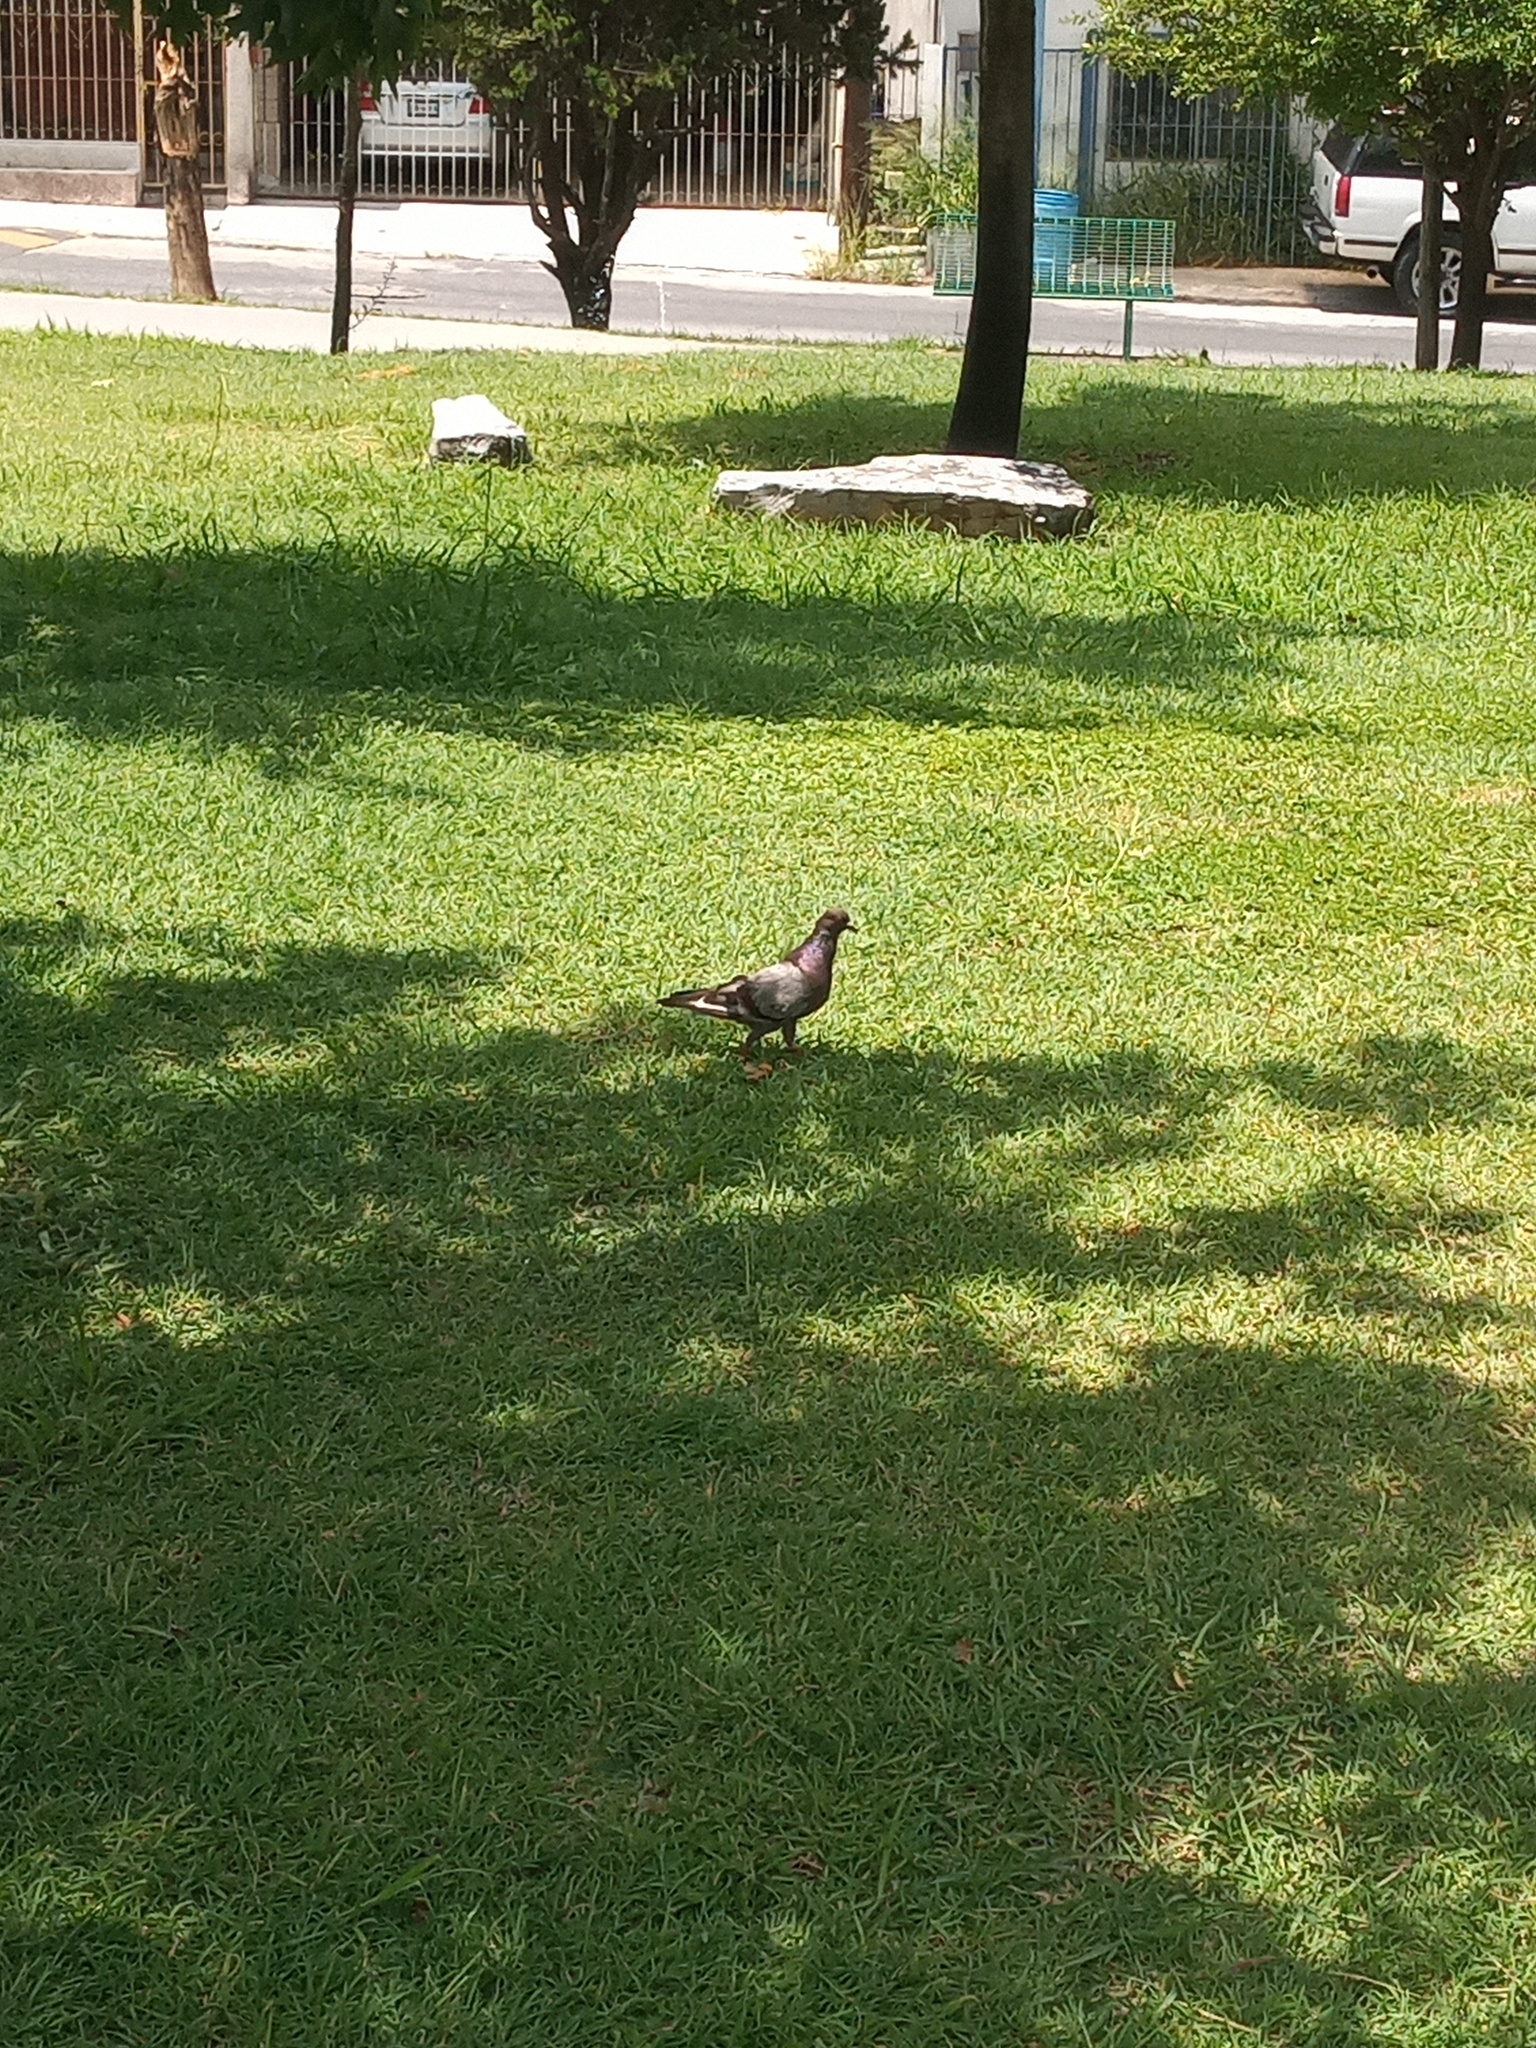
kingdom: Animalia
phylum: Chordata
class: Aves
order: Columbiformes
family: Columbidae
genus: Columba
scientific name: Columba livia
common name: Rock pigeon
